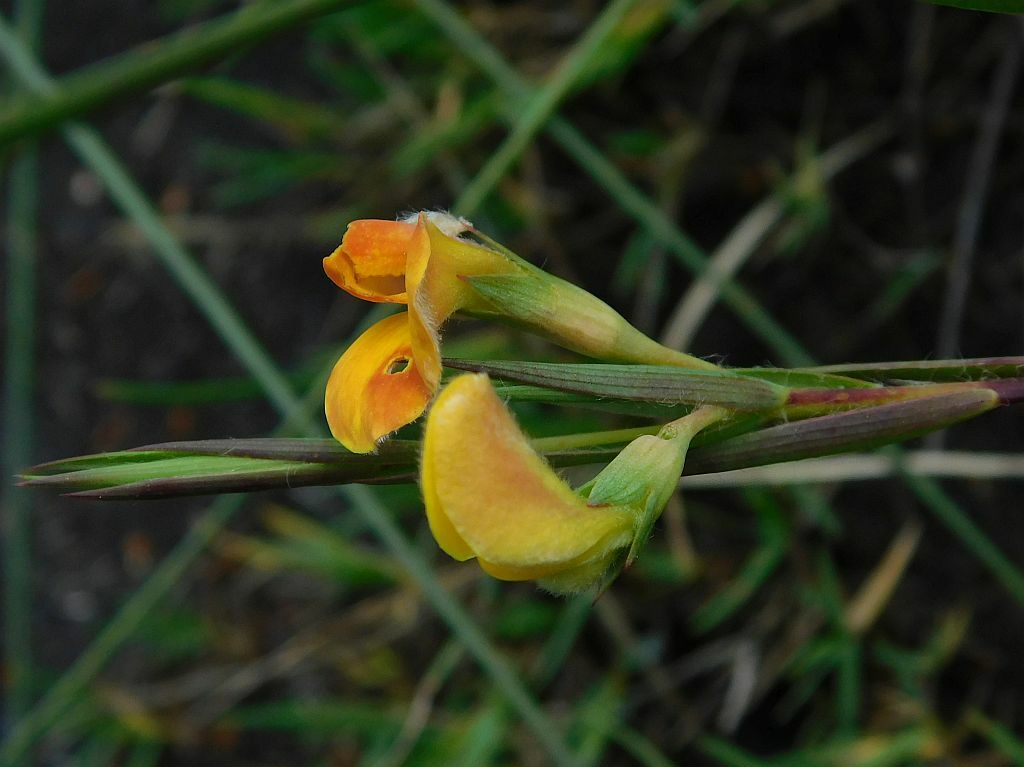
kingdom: Plantae
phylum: Tracheophyta
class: Magnoliopsida
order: Fabales
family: Fabaceae
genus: Aspalathus
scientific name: Aspalathus angustifolia
